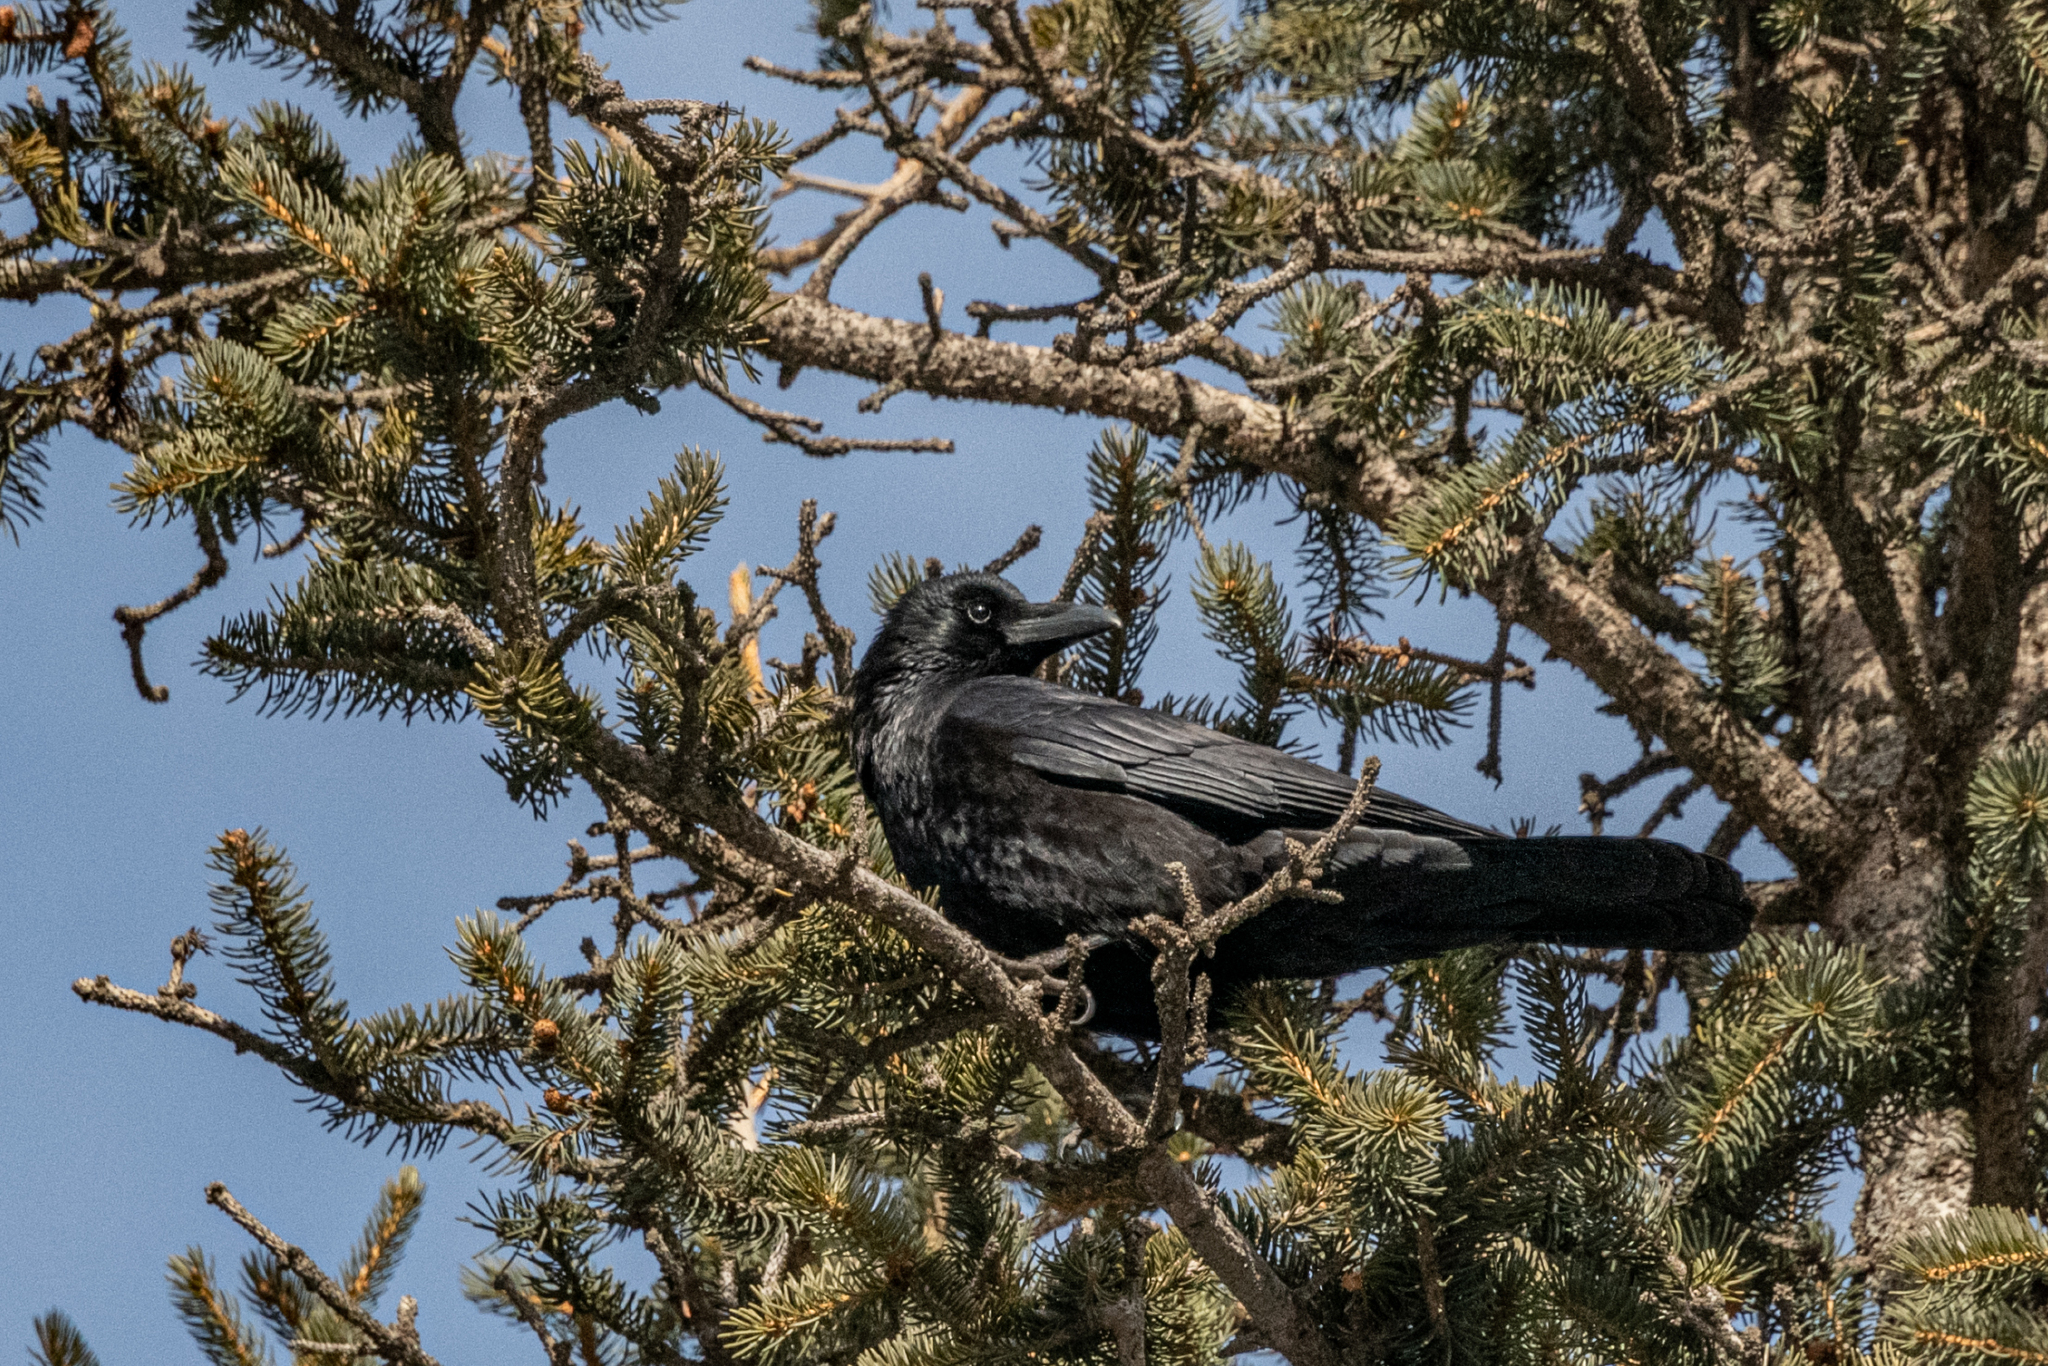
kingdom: Animalia
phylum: Chordata
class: Aves
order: Passeriformes
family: Corvidae
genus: Corvus
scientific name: Corvus corone
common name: Carrion crow
